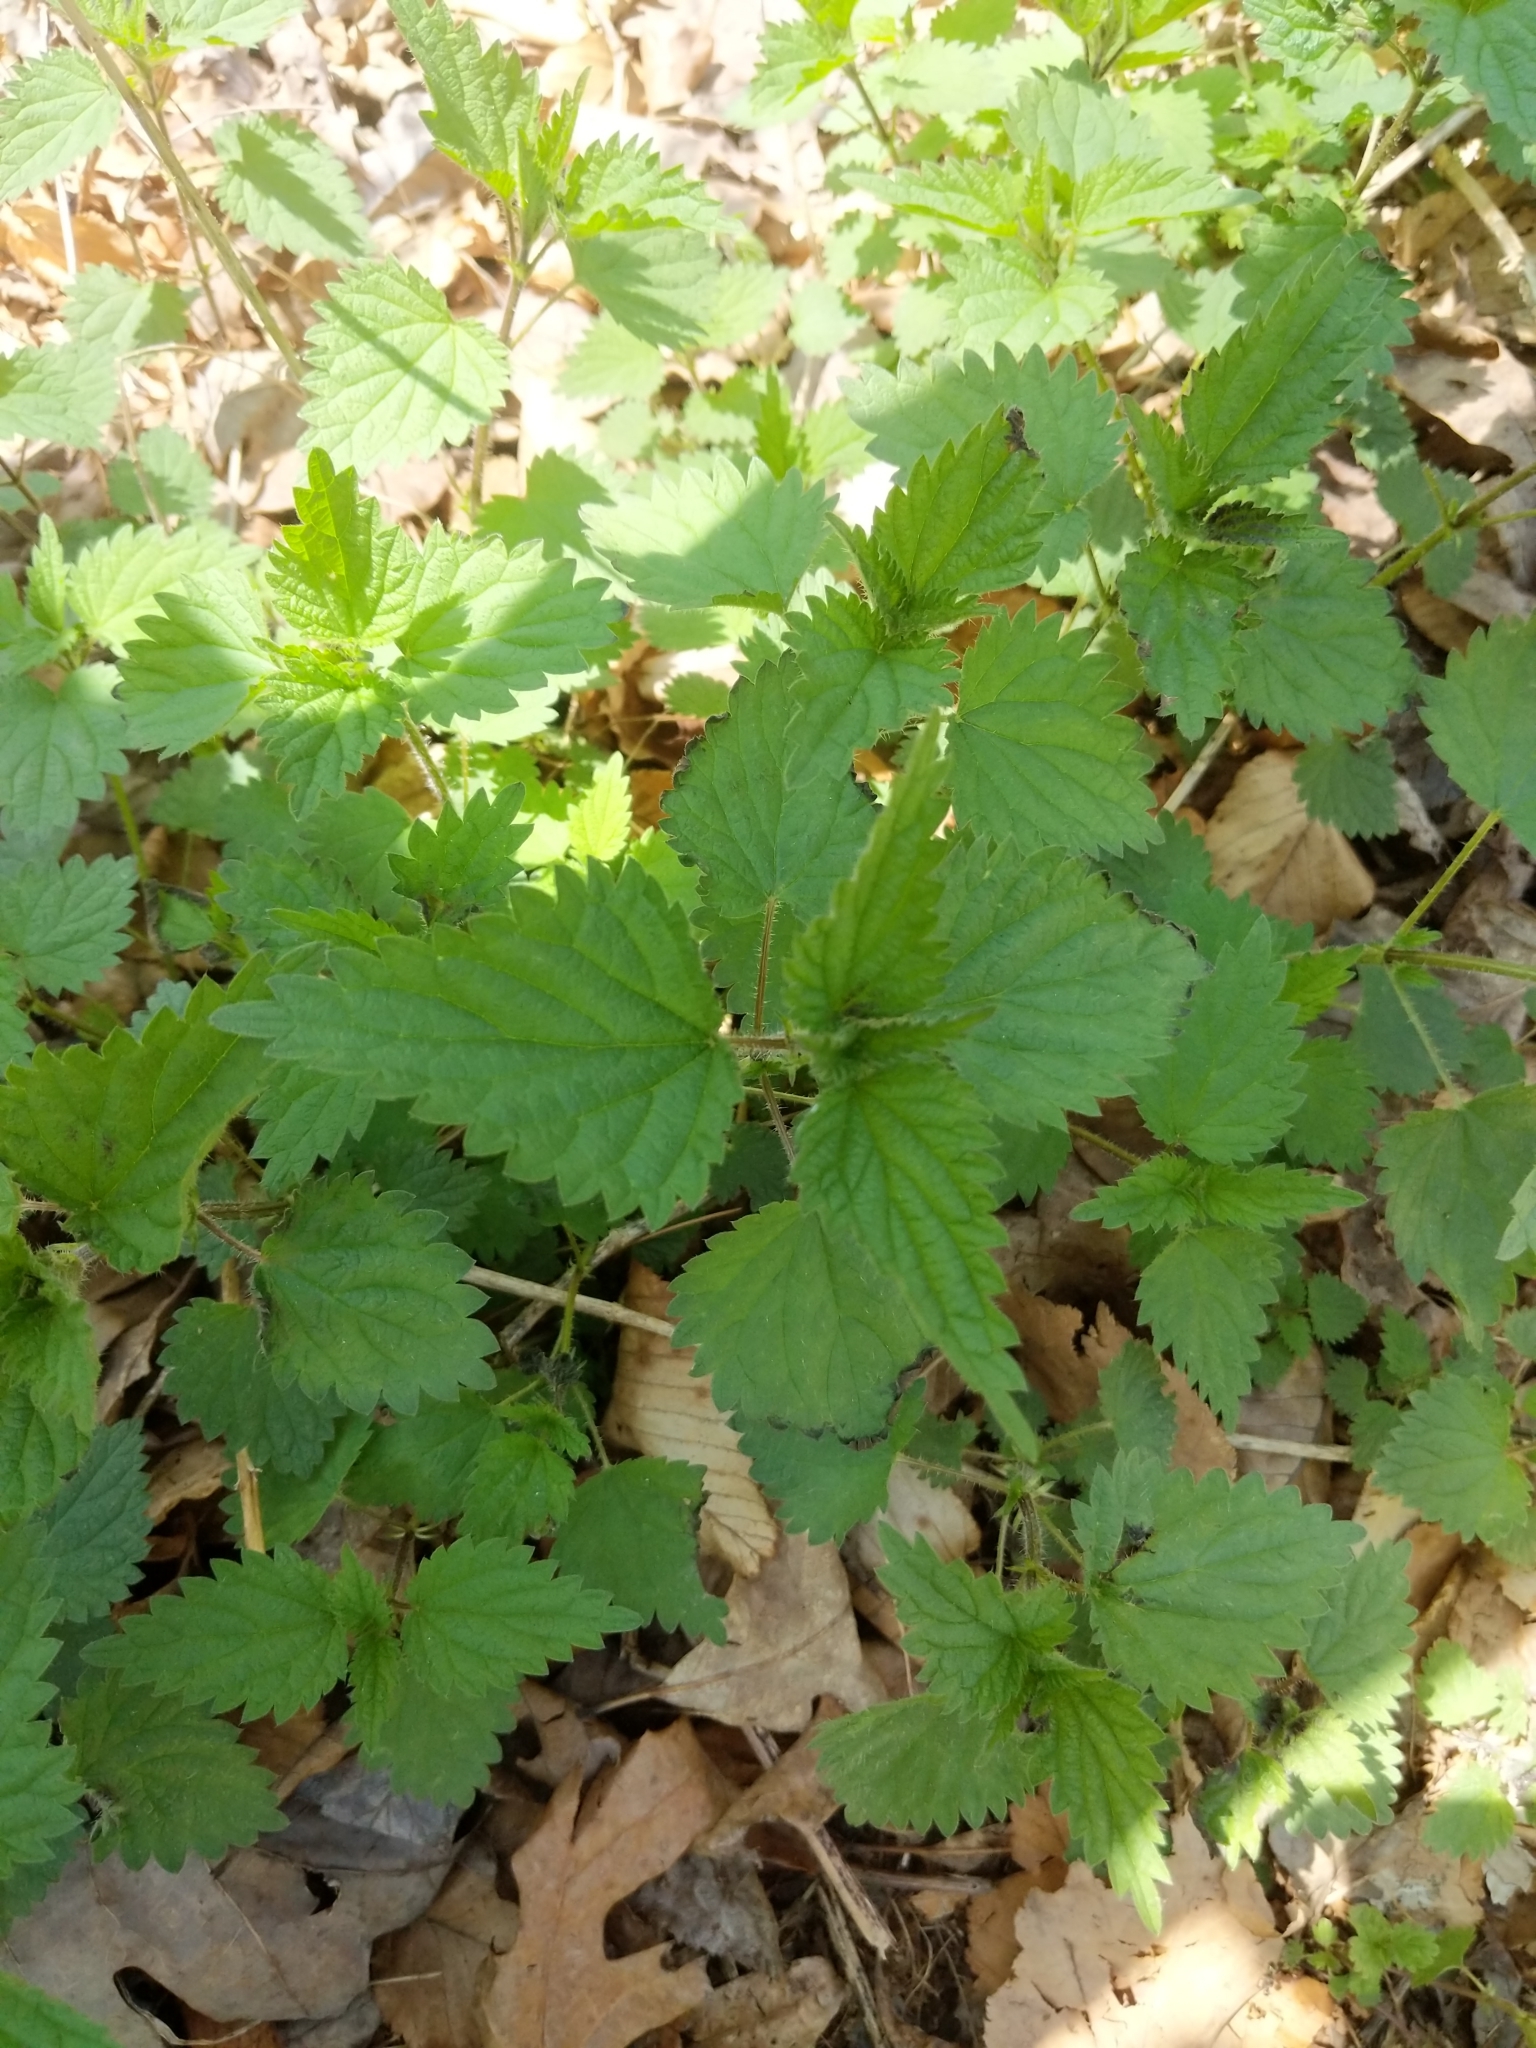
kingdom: Plantae
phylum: Tracheophyta
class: Magnoliopsida
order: Rosales
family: Urticaceae
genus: Urtica
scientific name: Urtica dioica
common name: Common nettle
